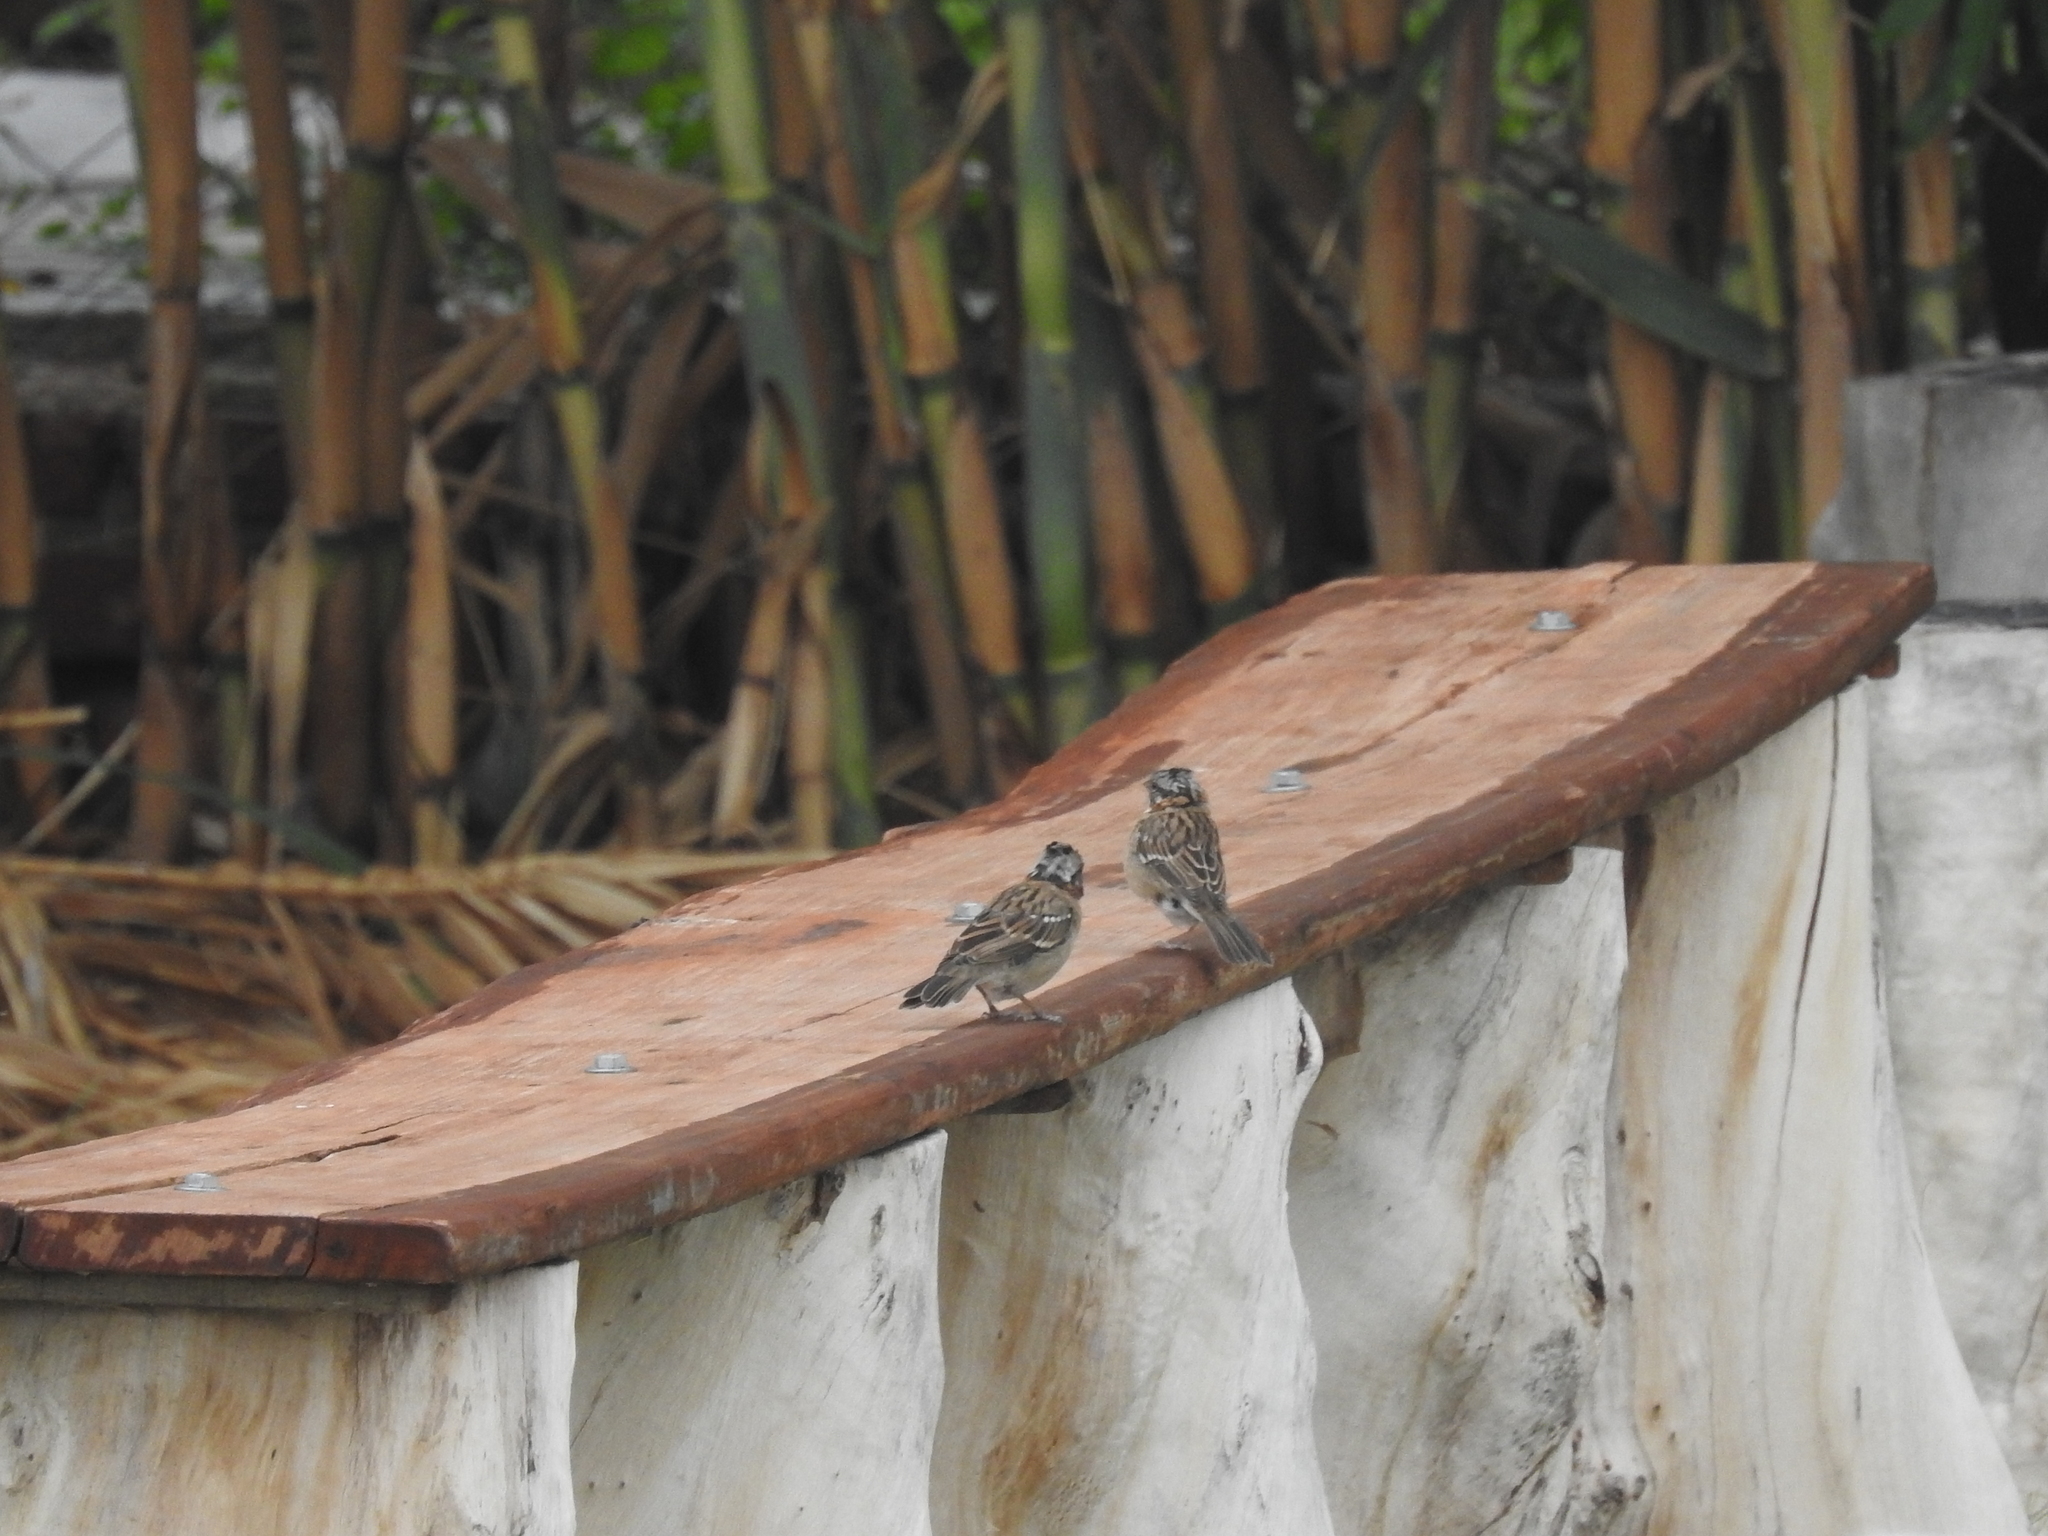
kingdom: Animalia
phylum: Chordata
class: Aves
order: Passeriformes
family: Passerellidae
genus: Zonotrichia
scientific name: Zonotrichia capensis
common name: Rufous-collared sparrow
